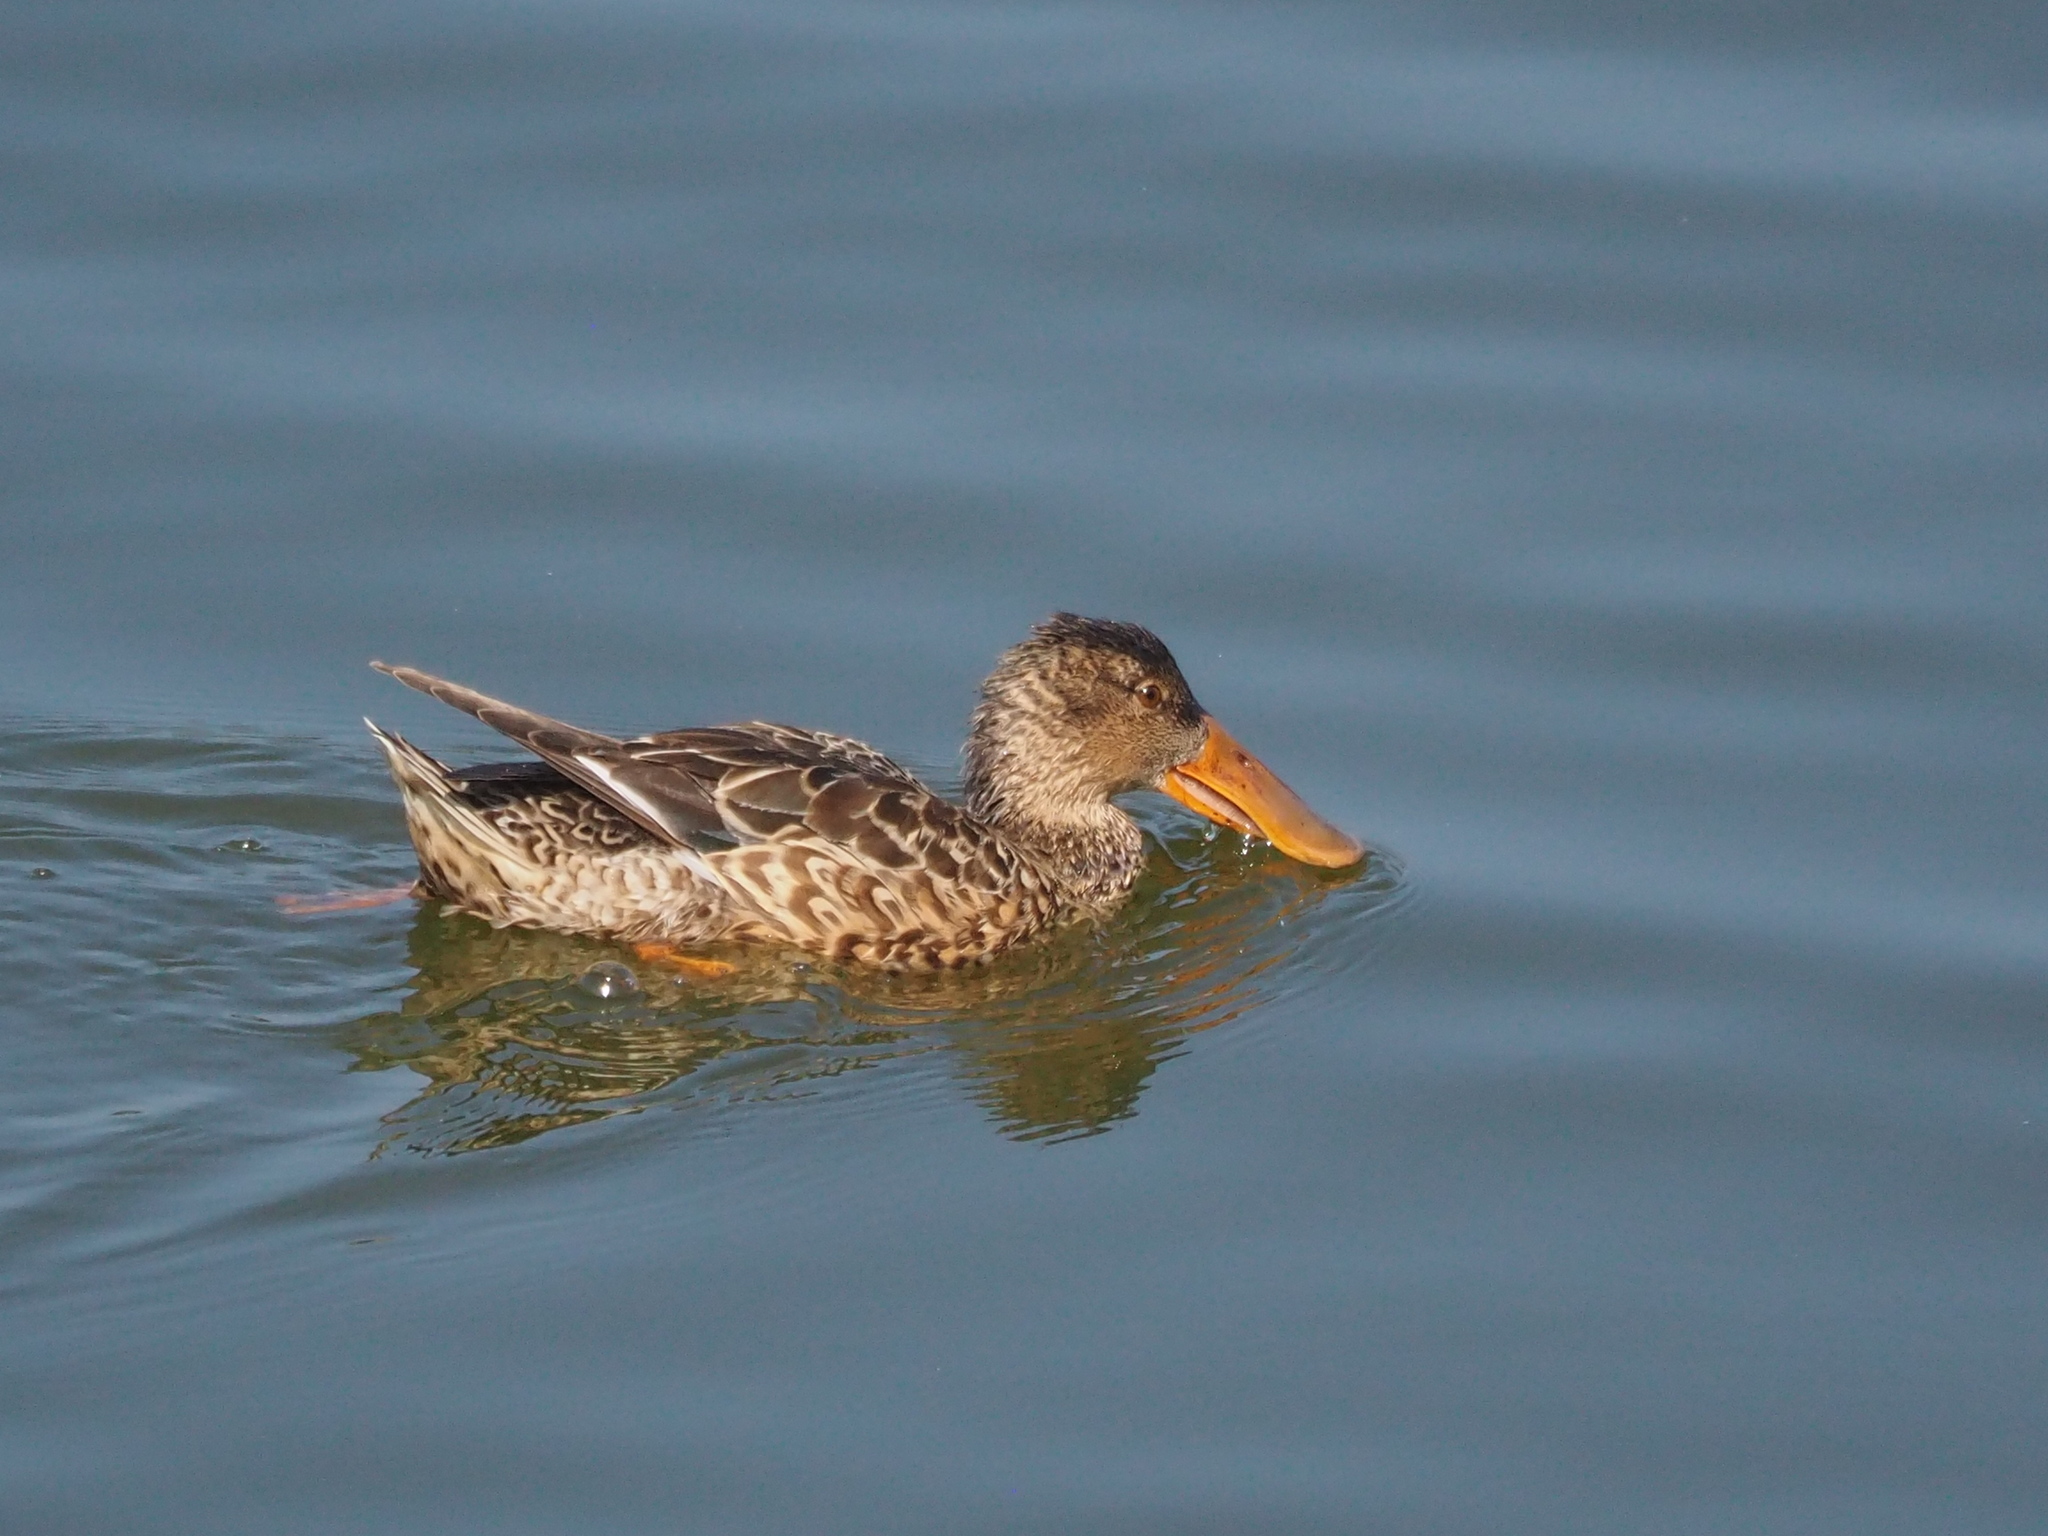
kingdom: Animalia
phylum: Chordata
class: Aves
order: Anseriformes
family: Anatidae
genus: Spatula
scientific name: Spatula clypeata
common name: Northern shoveler
